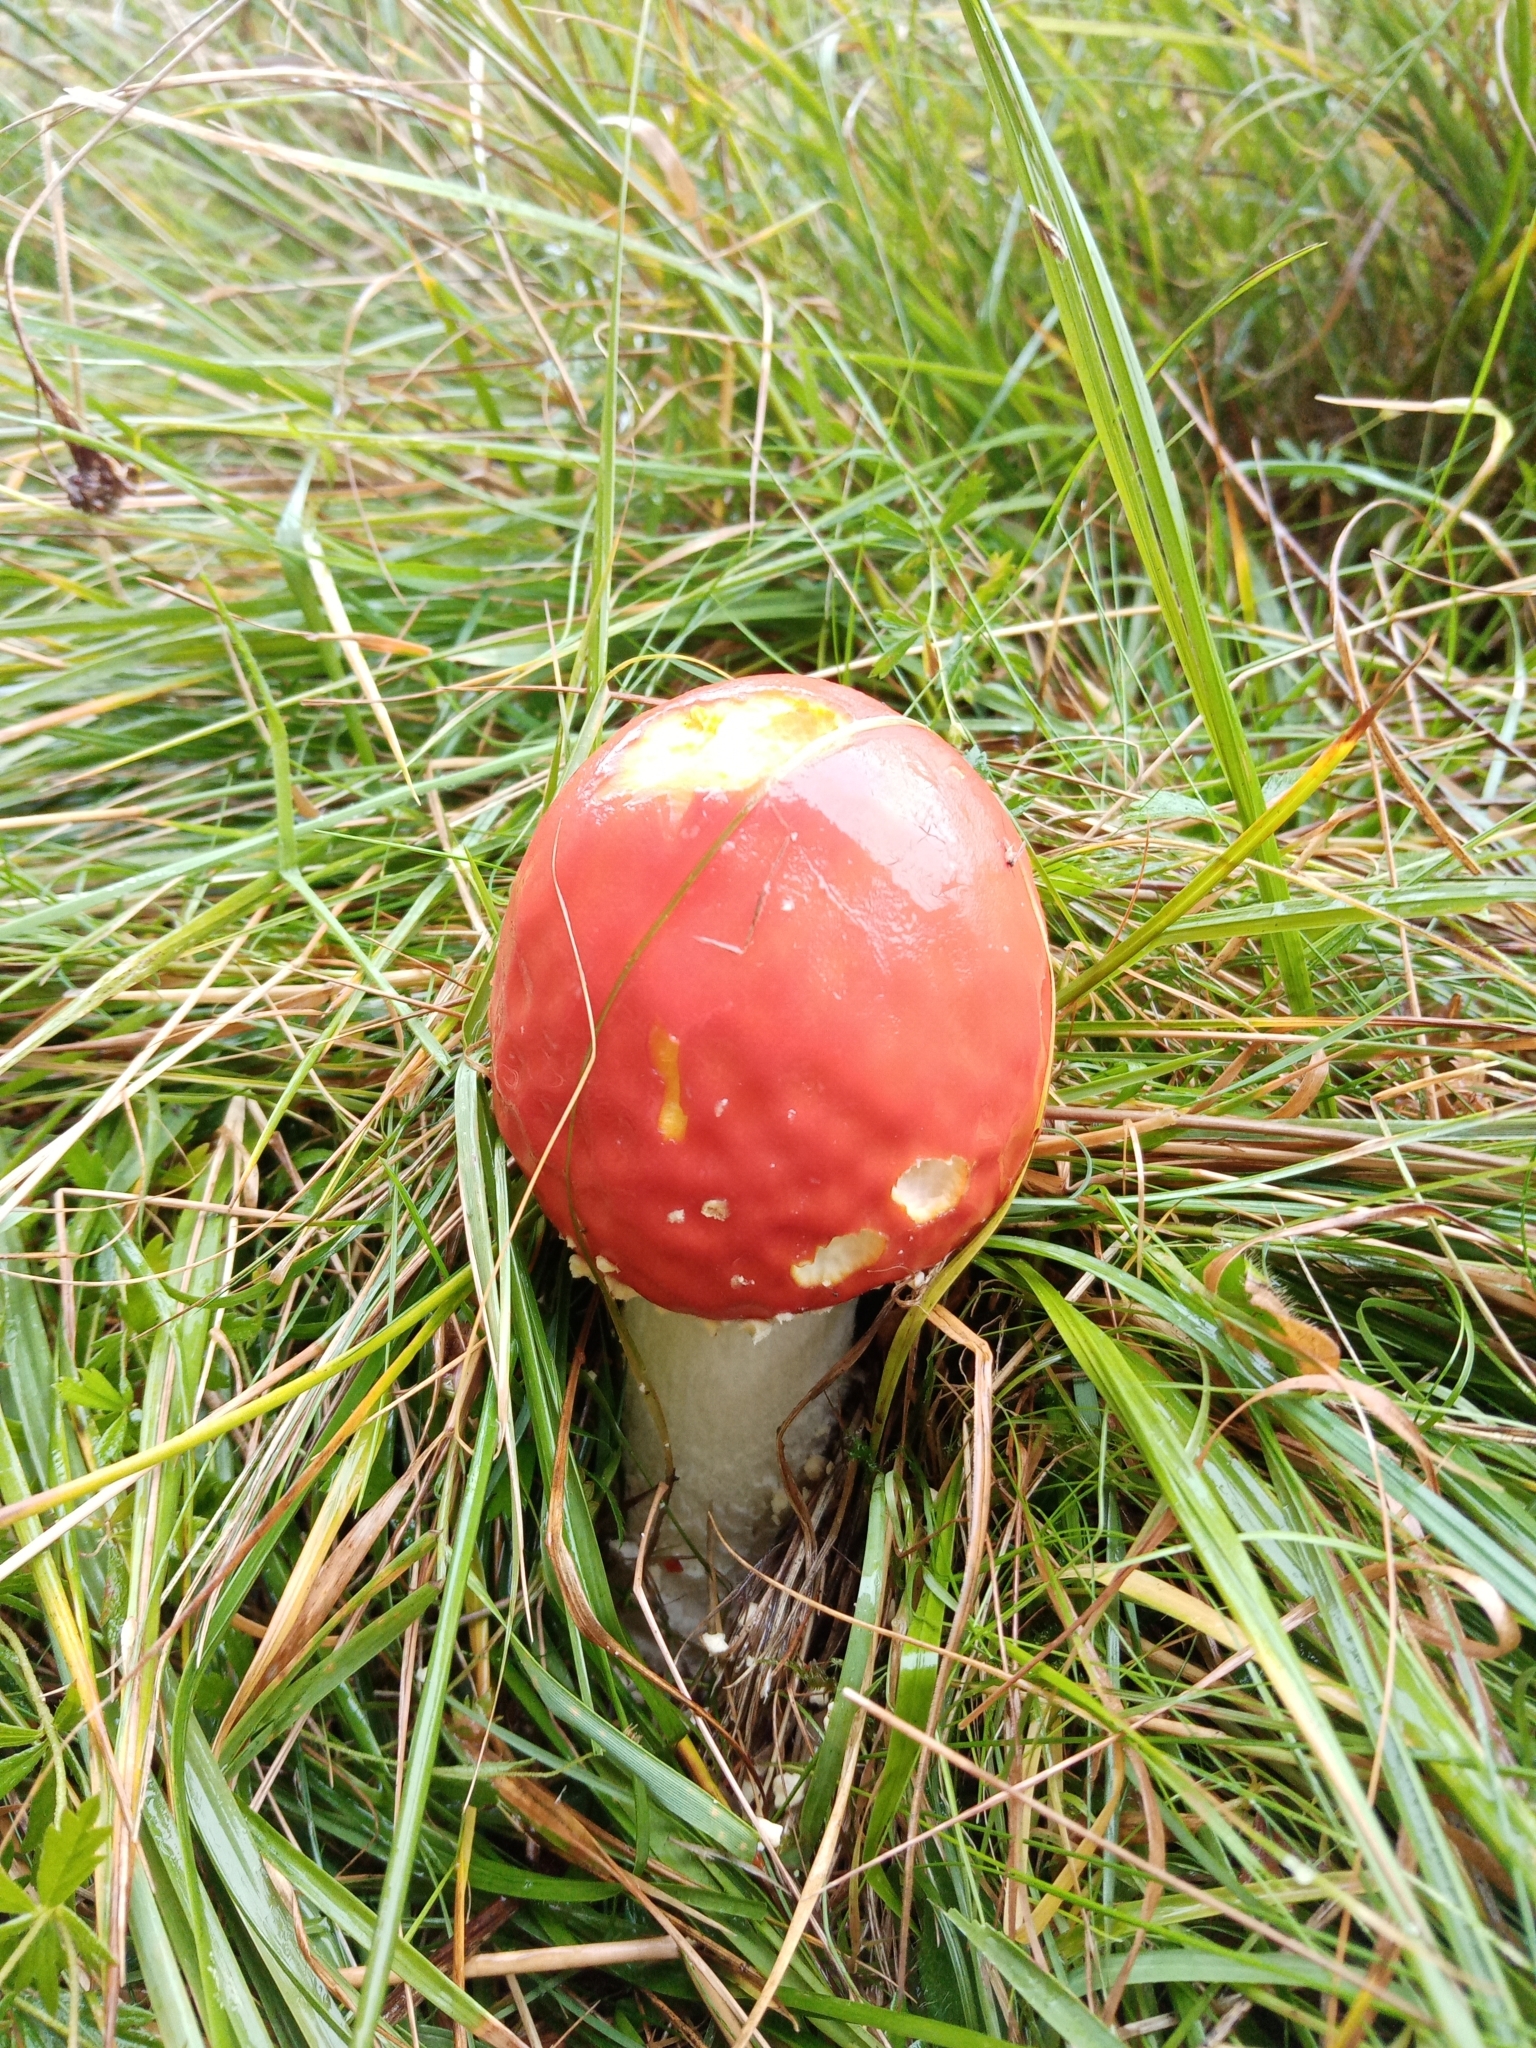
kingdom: Fungi
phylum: Basidiomycota
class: Agaricomycetes
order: Agaricales
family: Amanitaceae
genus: Amanita
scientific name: Amanita muscaria
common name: Fly agaric
